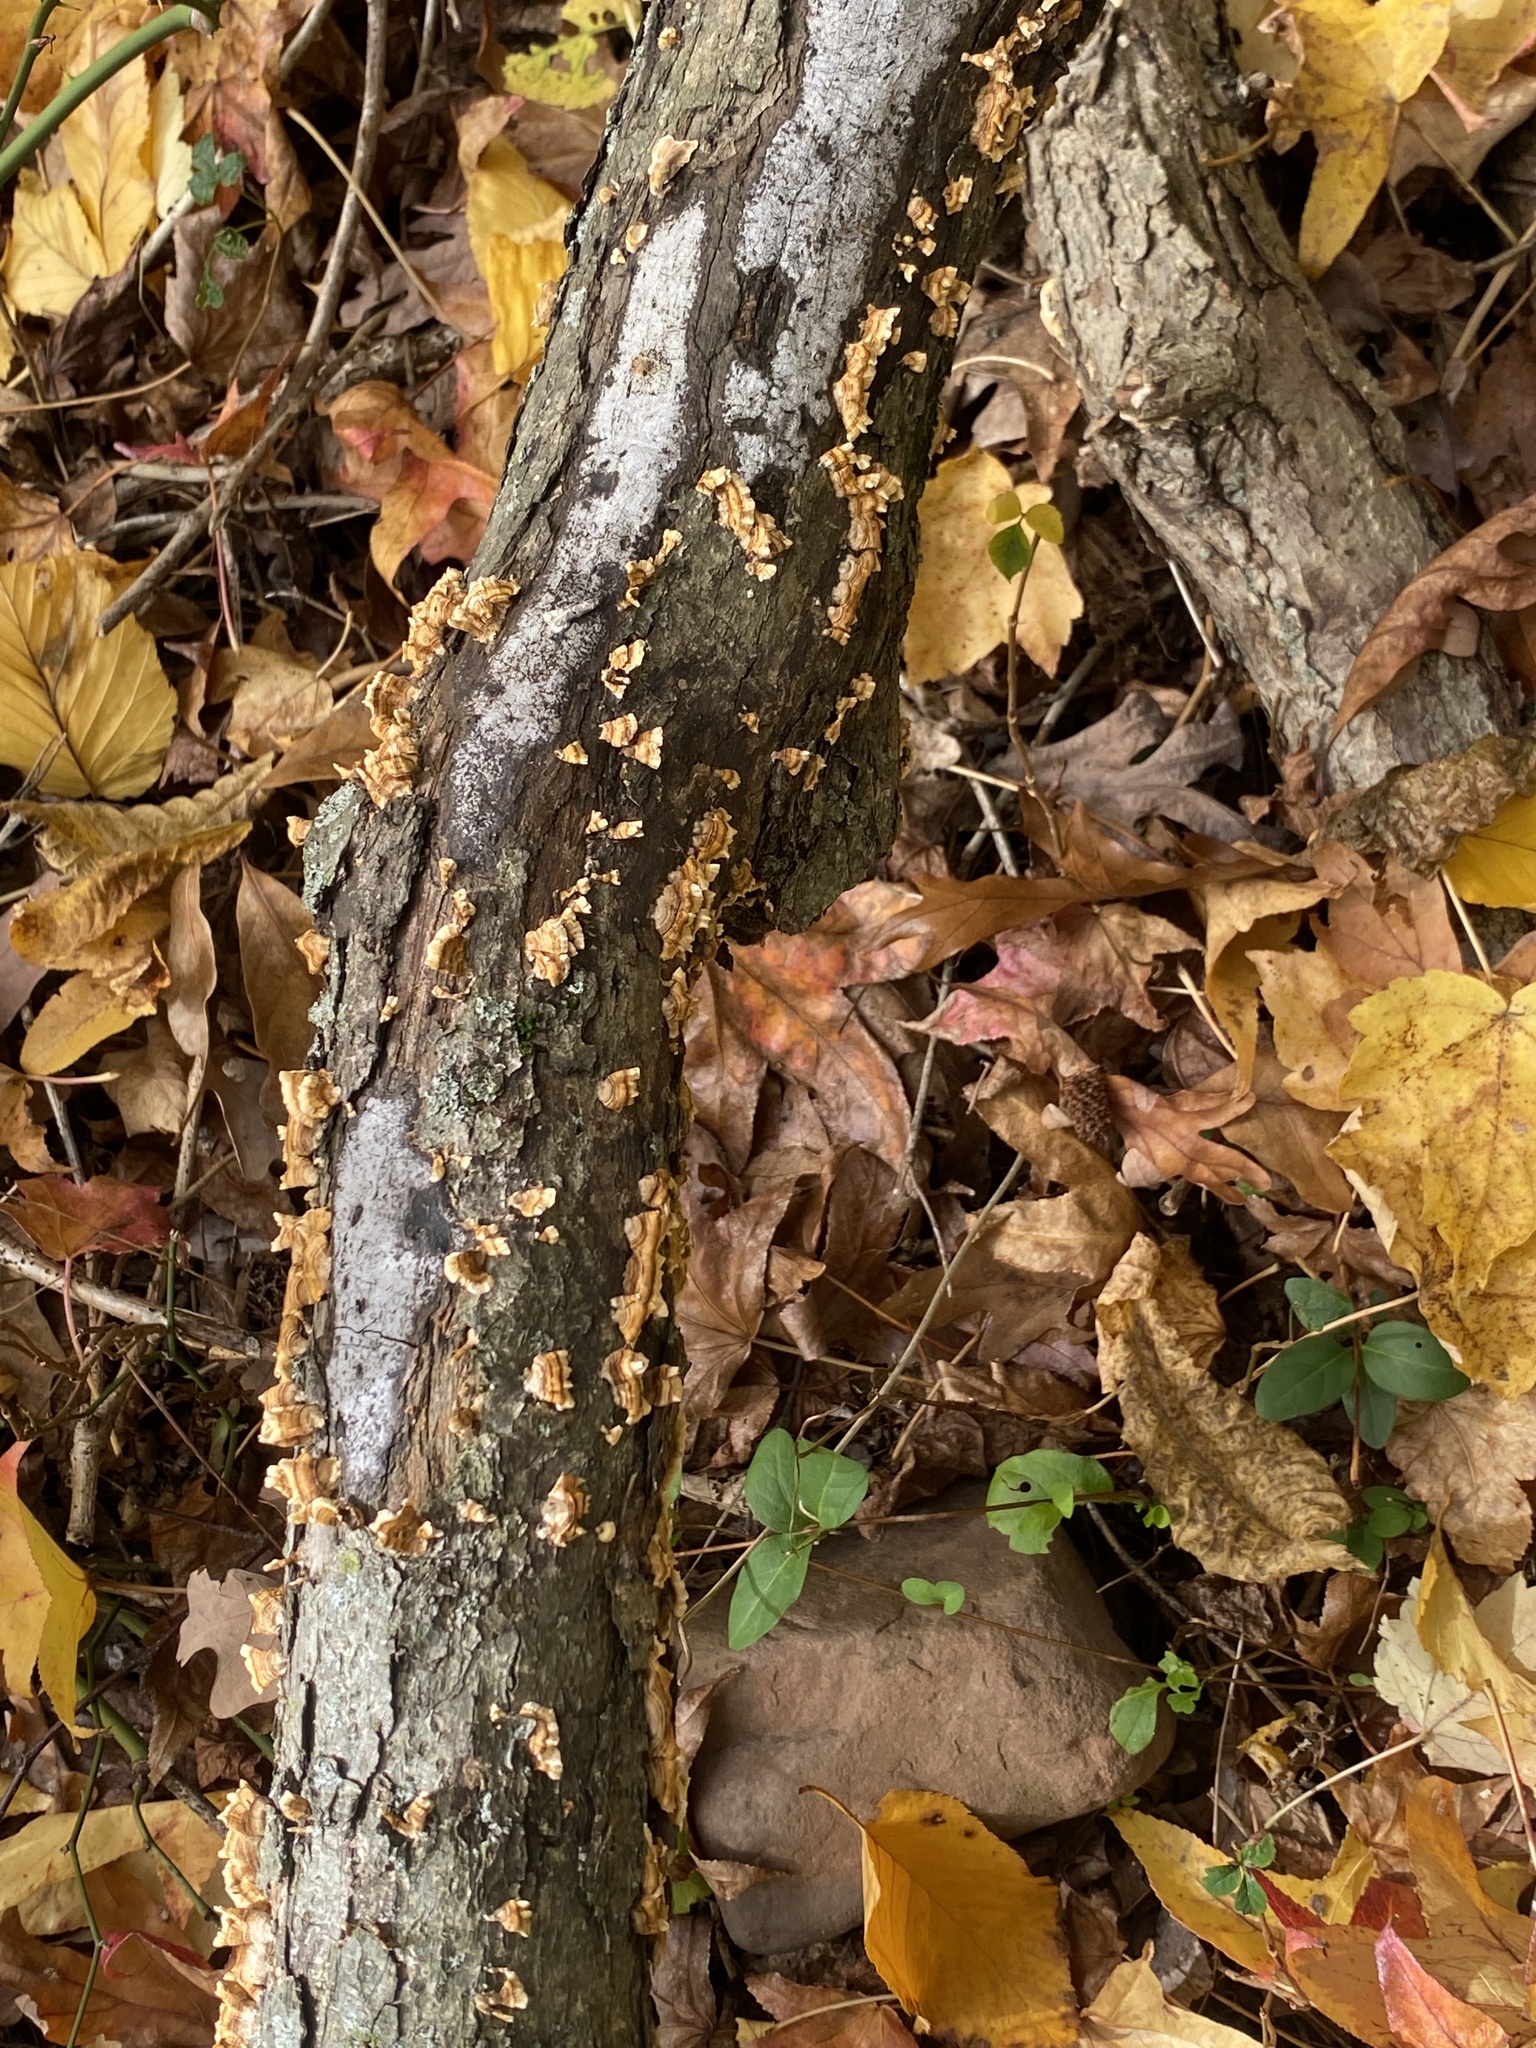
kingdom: Fungi
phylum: Basidiomycota
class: Agaricomycetes
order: Russulales
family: Stereaceae
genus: Stereum
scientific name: Stereum complicatum
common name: Crowded parchment
